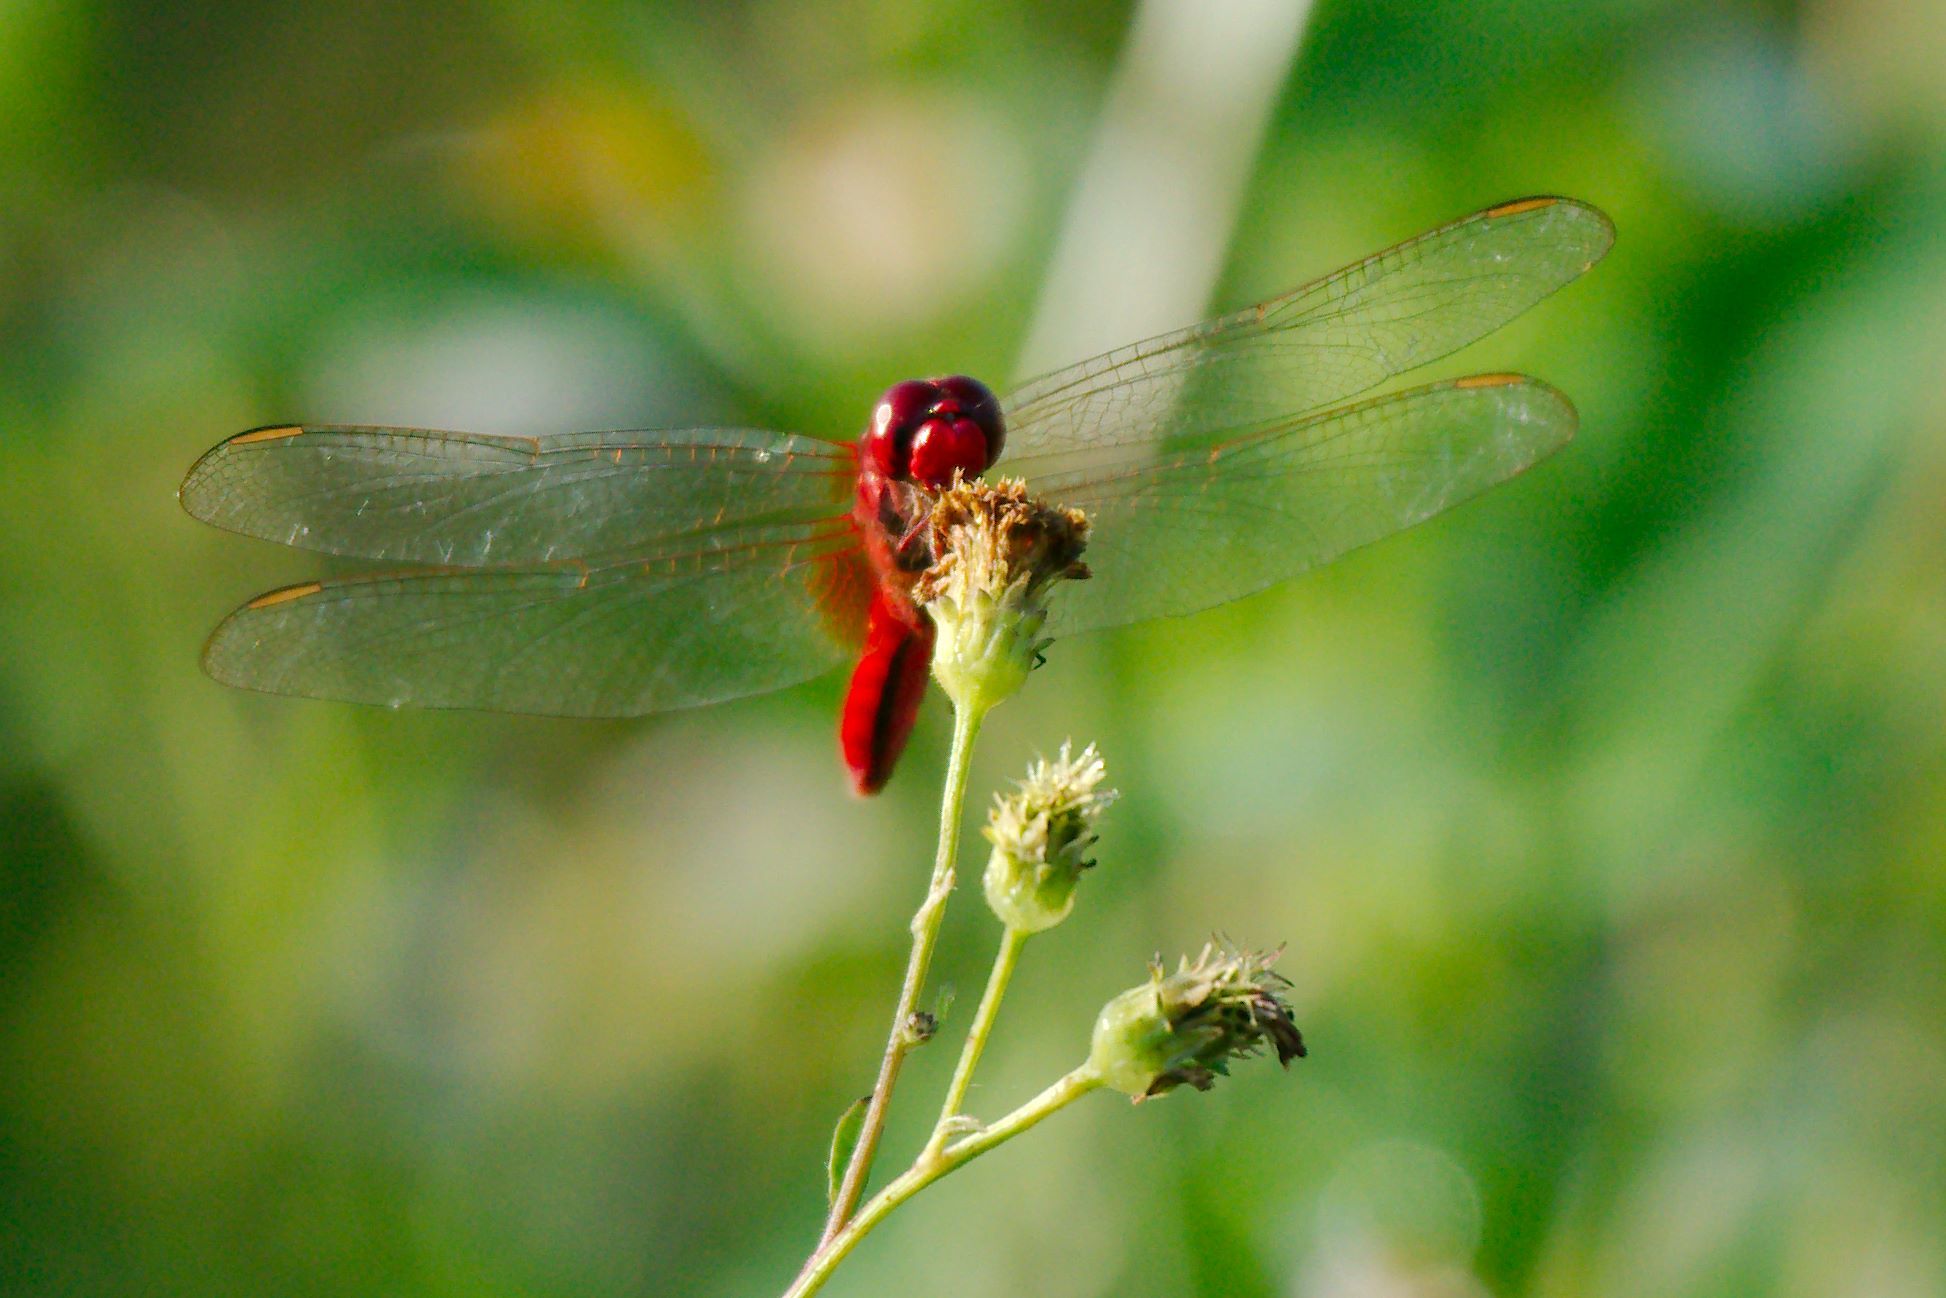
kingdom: Animalia
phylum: Arthropoda
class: Insecta
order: Odonata
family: Libellulidae
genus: Crocothemis
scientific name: Crocothemis servilia
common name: Scarlet skimmer
